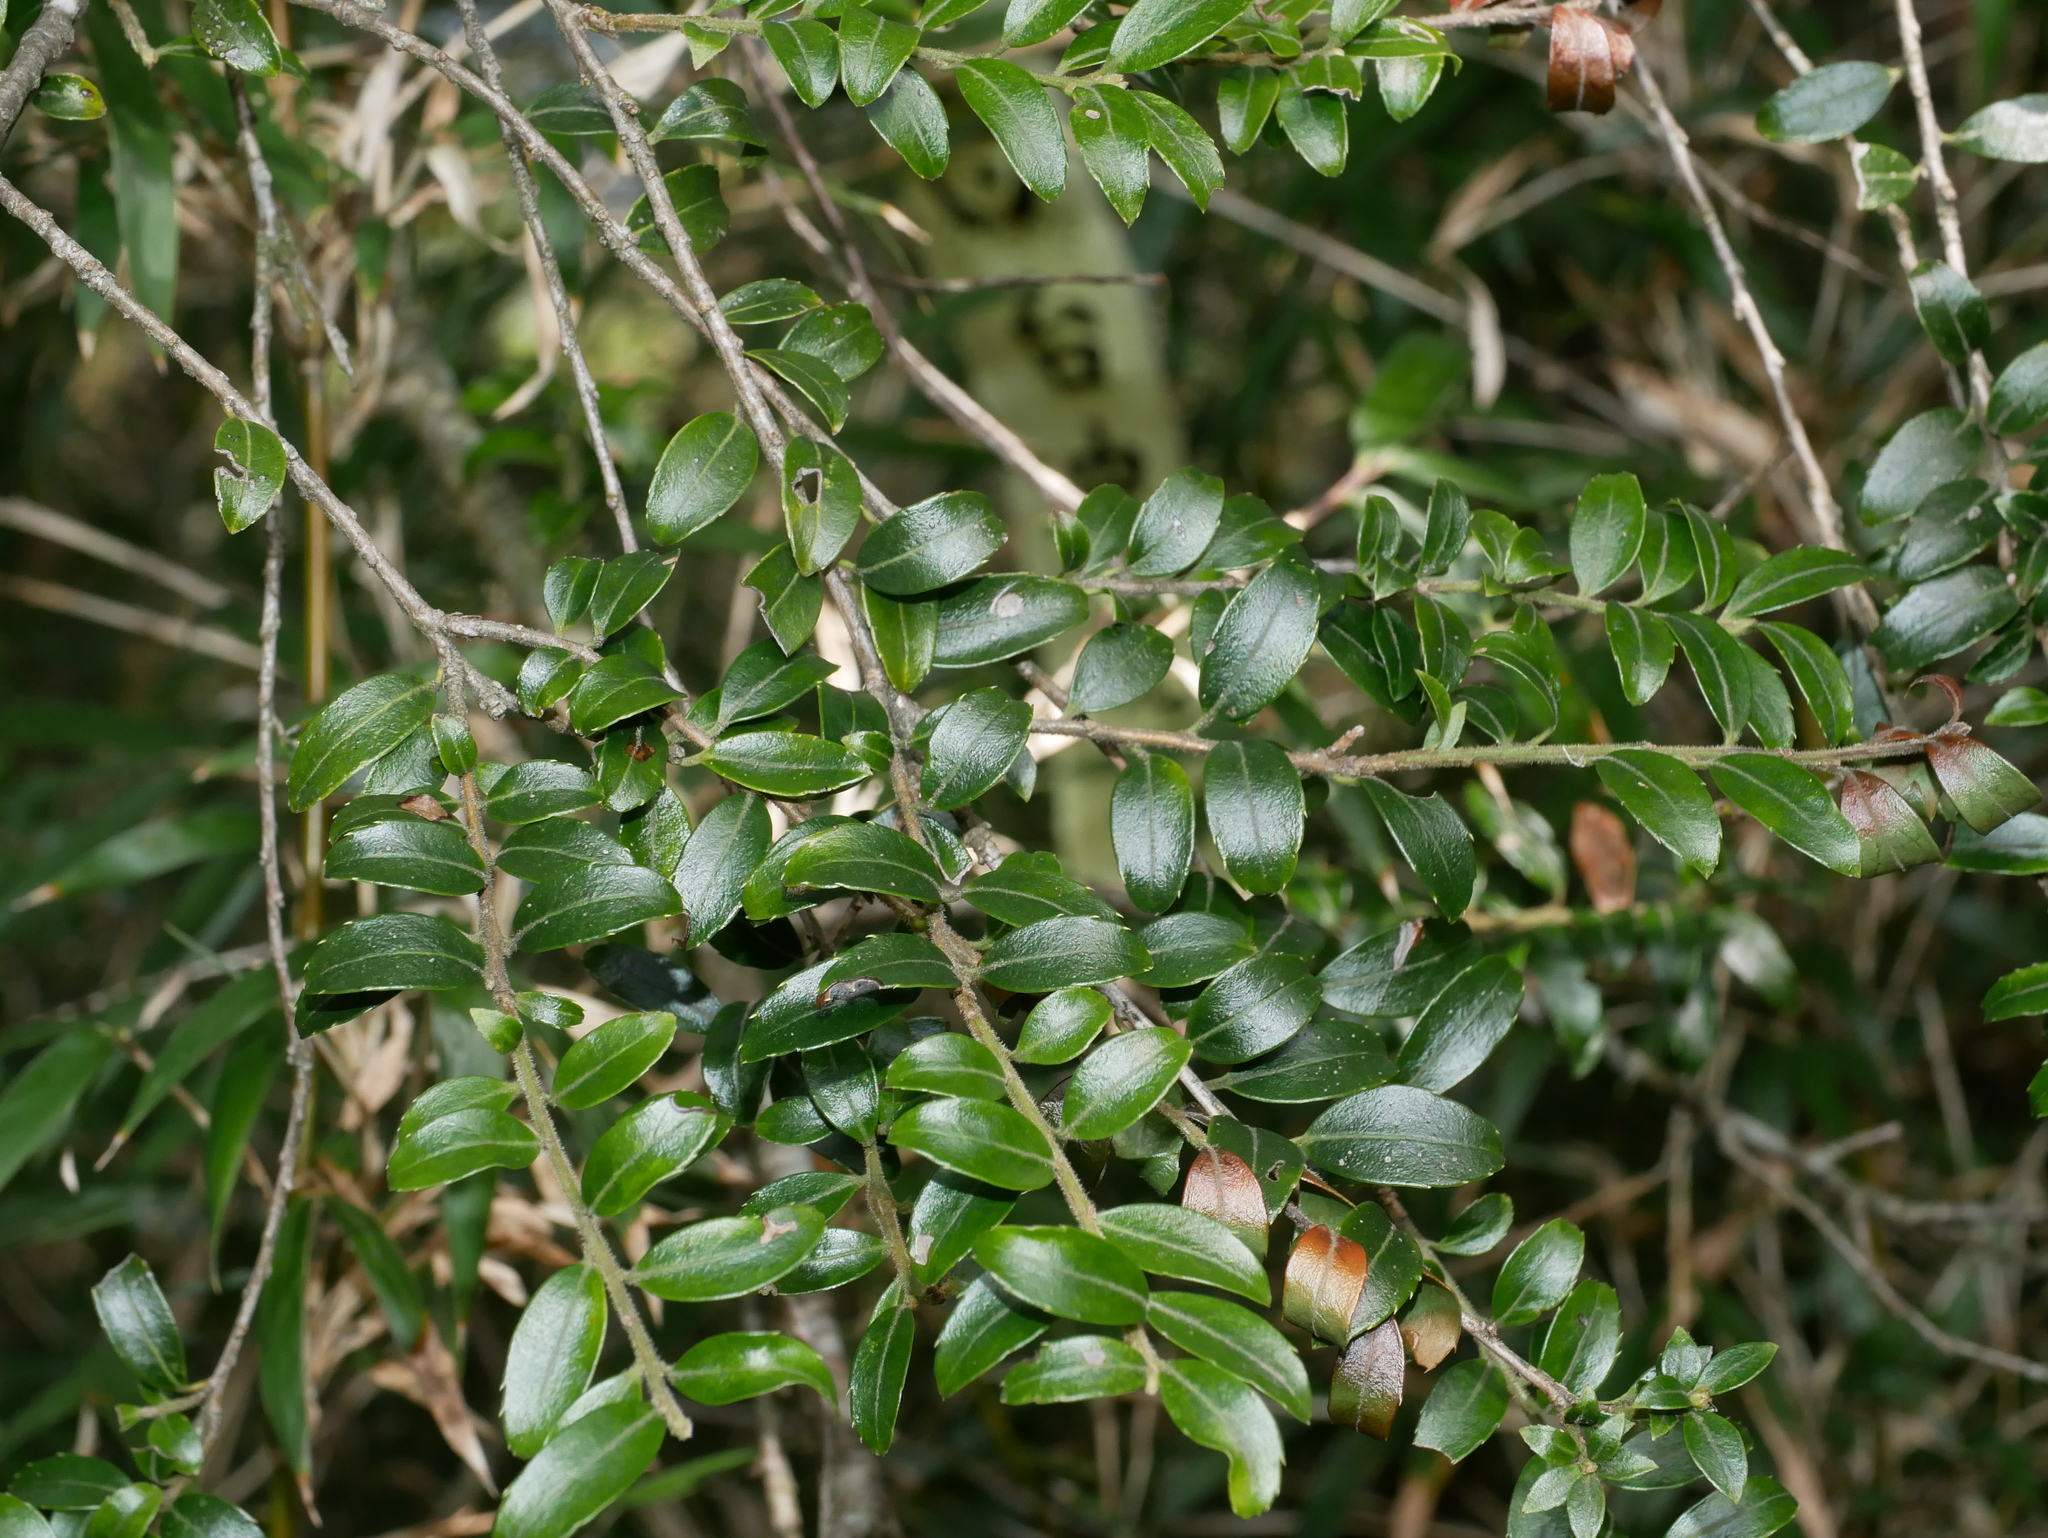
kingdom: Plantae
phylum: Tracheophyta
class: Magnoliopsida
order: Aquifoliales
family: Aquifoliaceae
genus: Ilex
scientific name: Ilex yunnanensis
